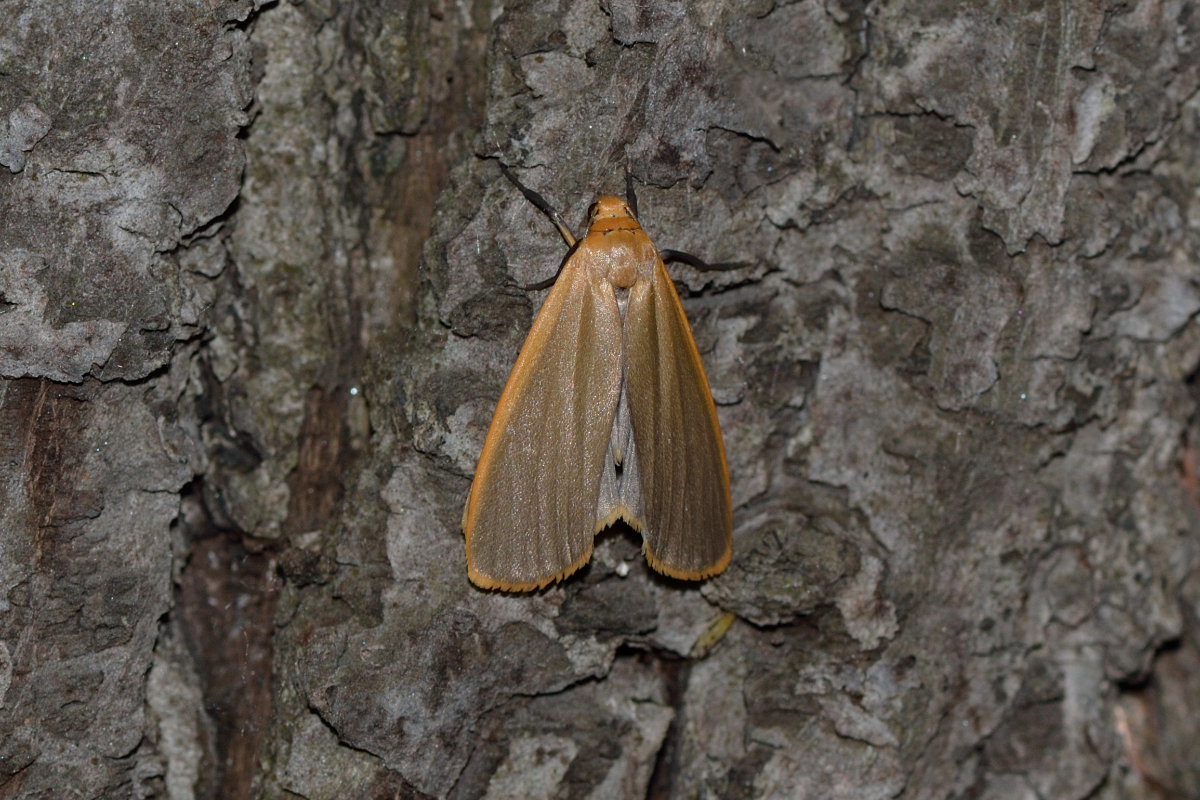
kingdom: Animalia
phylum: Arthropoda
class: Insecta
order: Lepidoptera
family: Erebidae
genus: Katha
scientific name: Katha depressa
